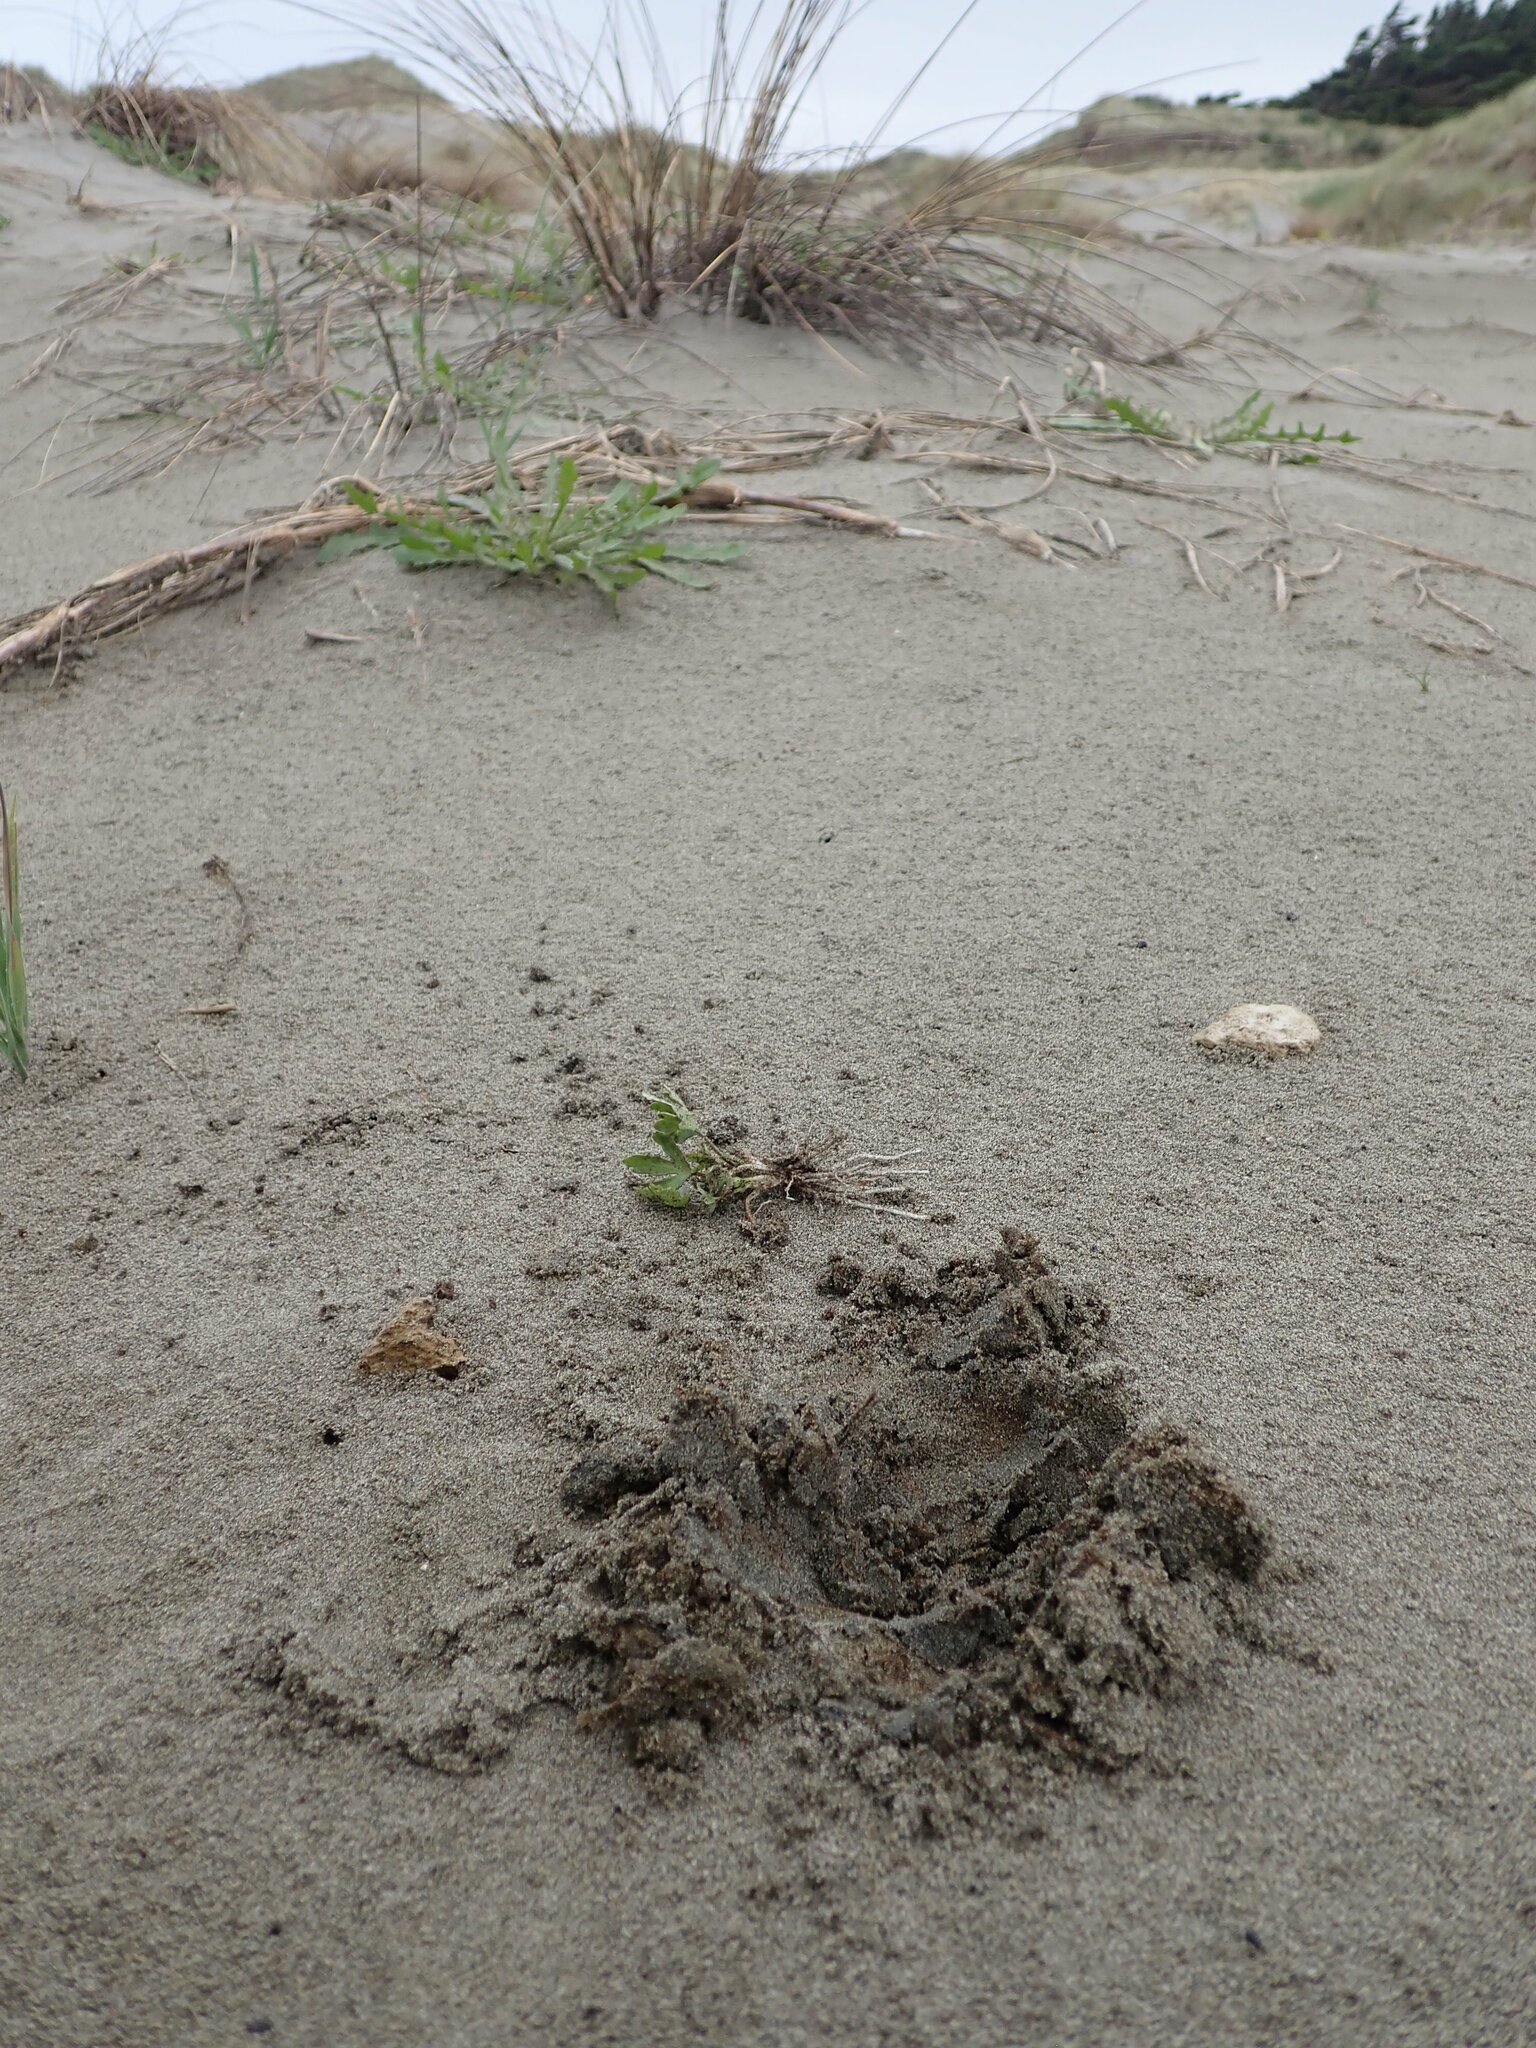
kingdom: Plantae
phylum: Tracheophyta
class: Magnoliopsida
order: Ranunculales
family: Ranunculaceae
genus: Ranunculus
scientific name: Ranunculus sceleratus
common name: Celery-leaved buttercup
